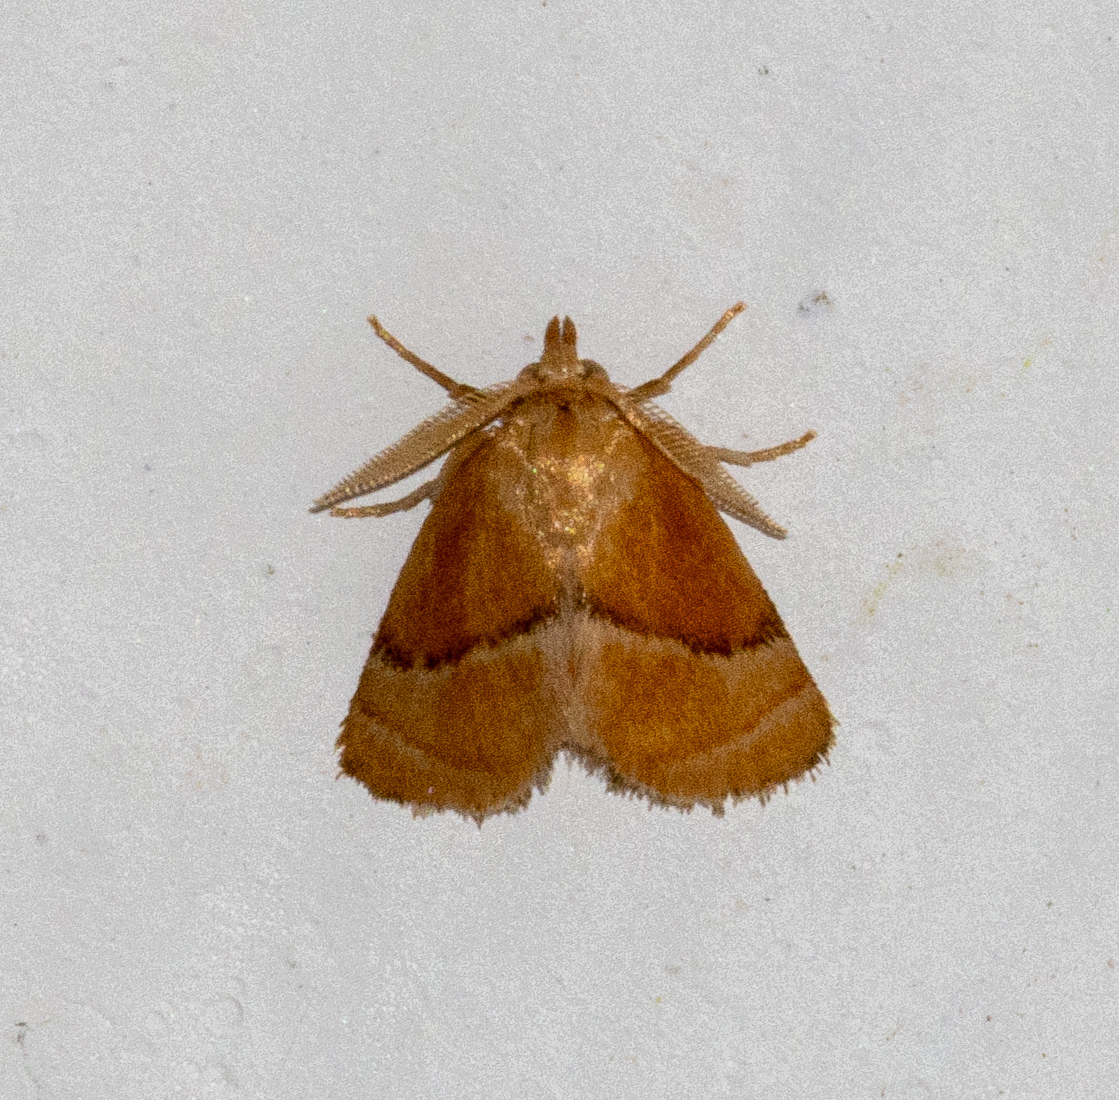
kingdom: Animalia
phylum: Arthropoda
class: Insecta
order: Lepidoptera
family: Limacodidae
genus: Platyprosterna
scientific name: Platyprosterna
